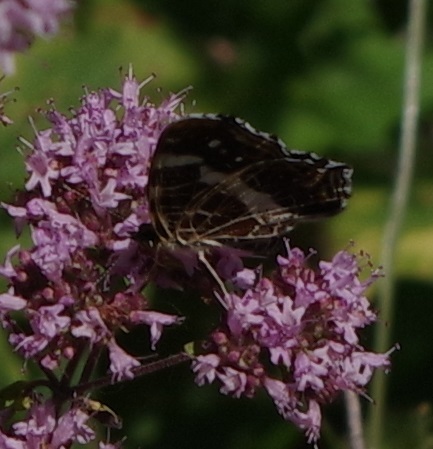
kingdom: Animalia
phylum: Arthropoda
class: Insecta
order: Lepidoptera
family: Nymphalidae
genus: Araschnia
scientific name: Araschnia levana
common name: Map butterfly
